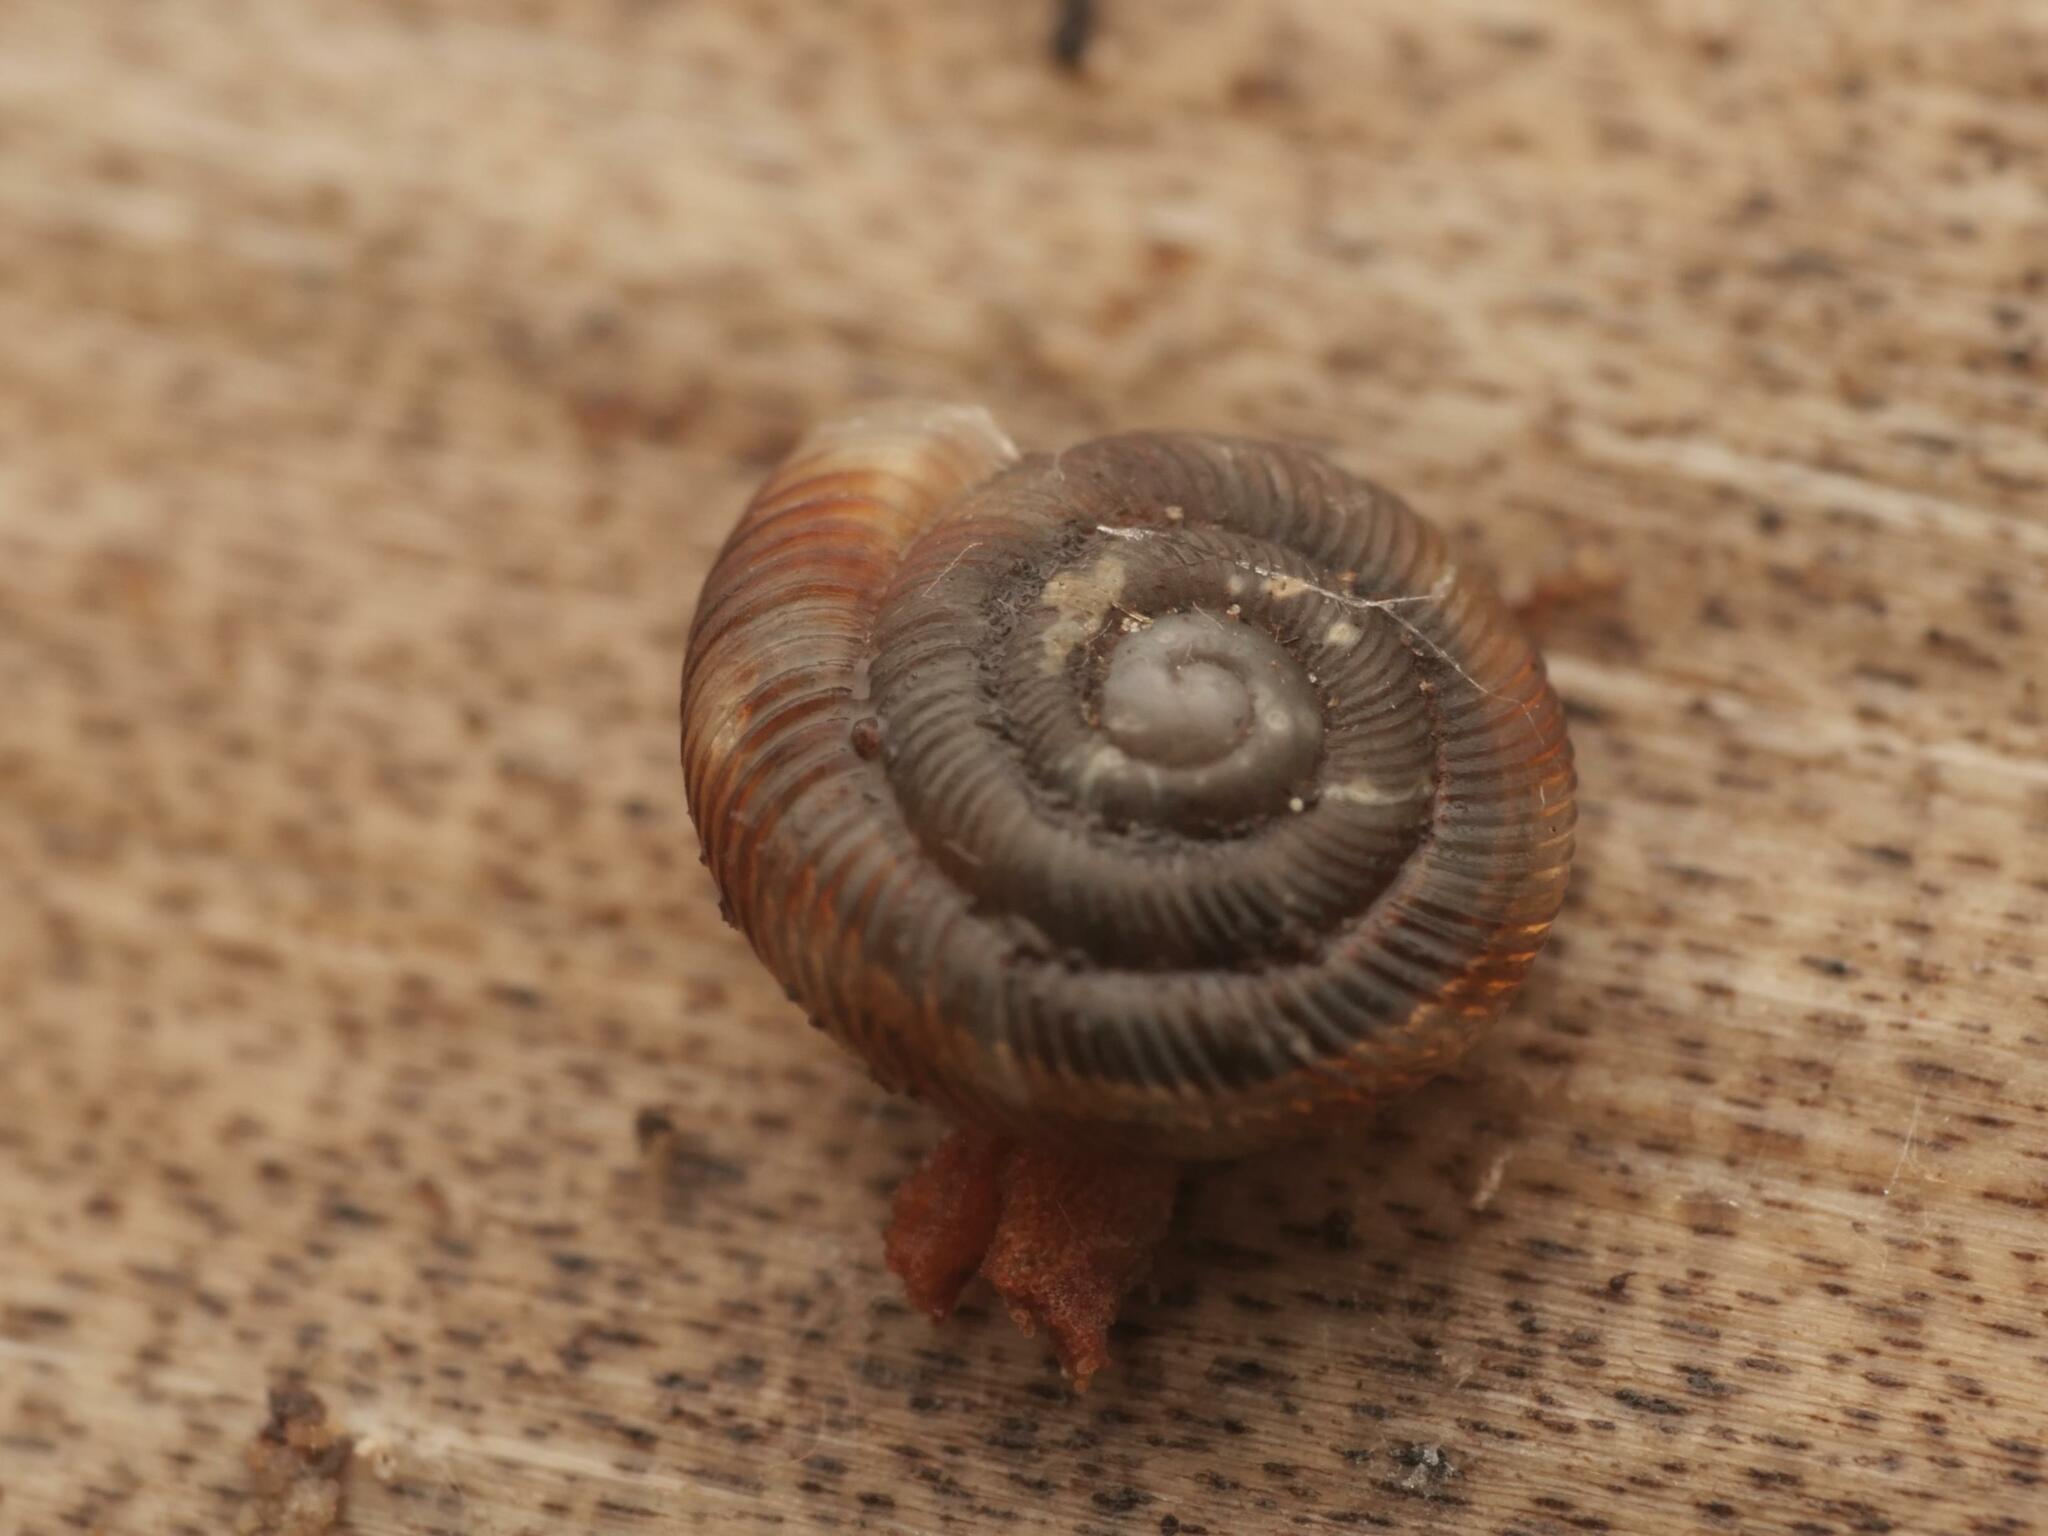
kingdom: Animalia
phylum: Mollusca
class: Gastropoda
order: Stylommatophora
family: Discidae
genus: Discus
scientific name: Discus rotundatus
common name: Rounded snail
